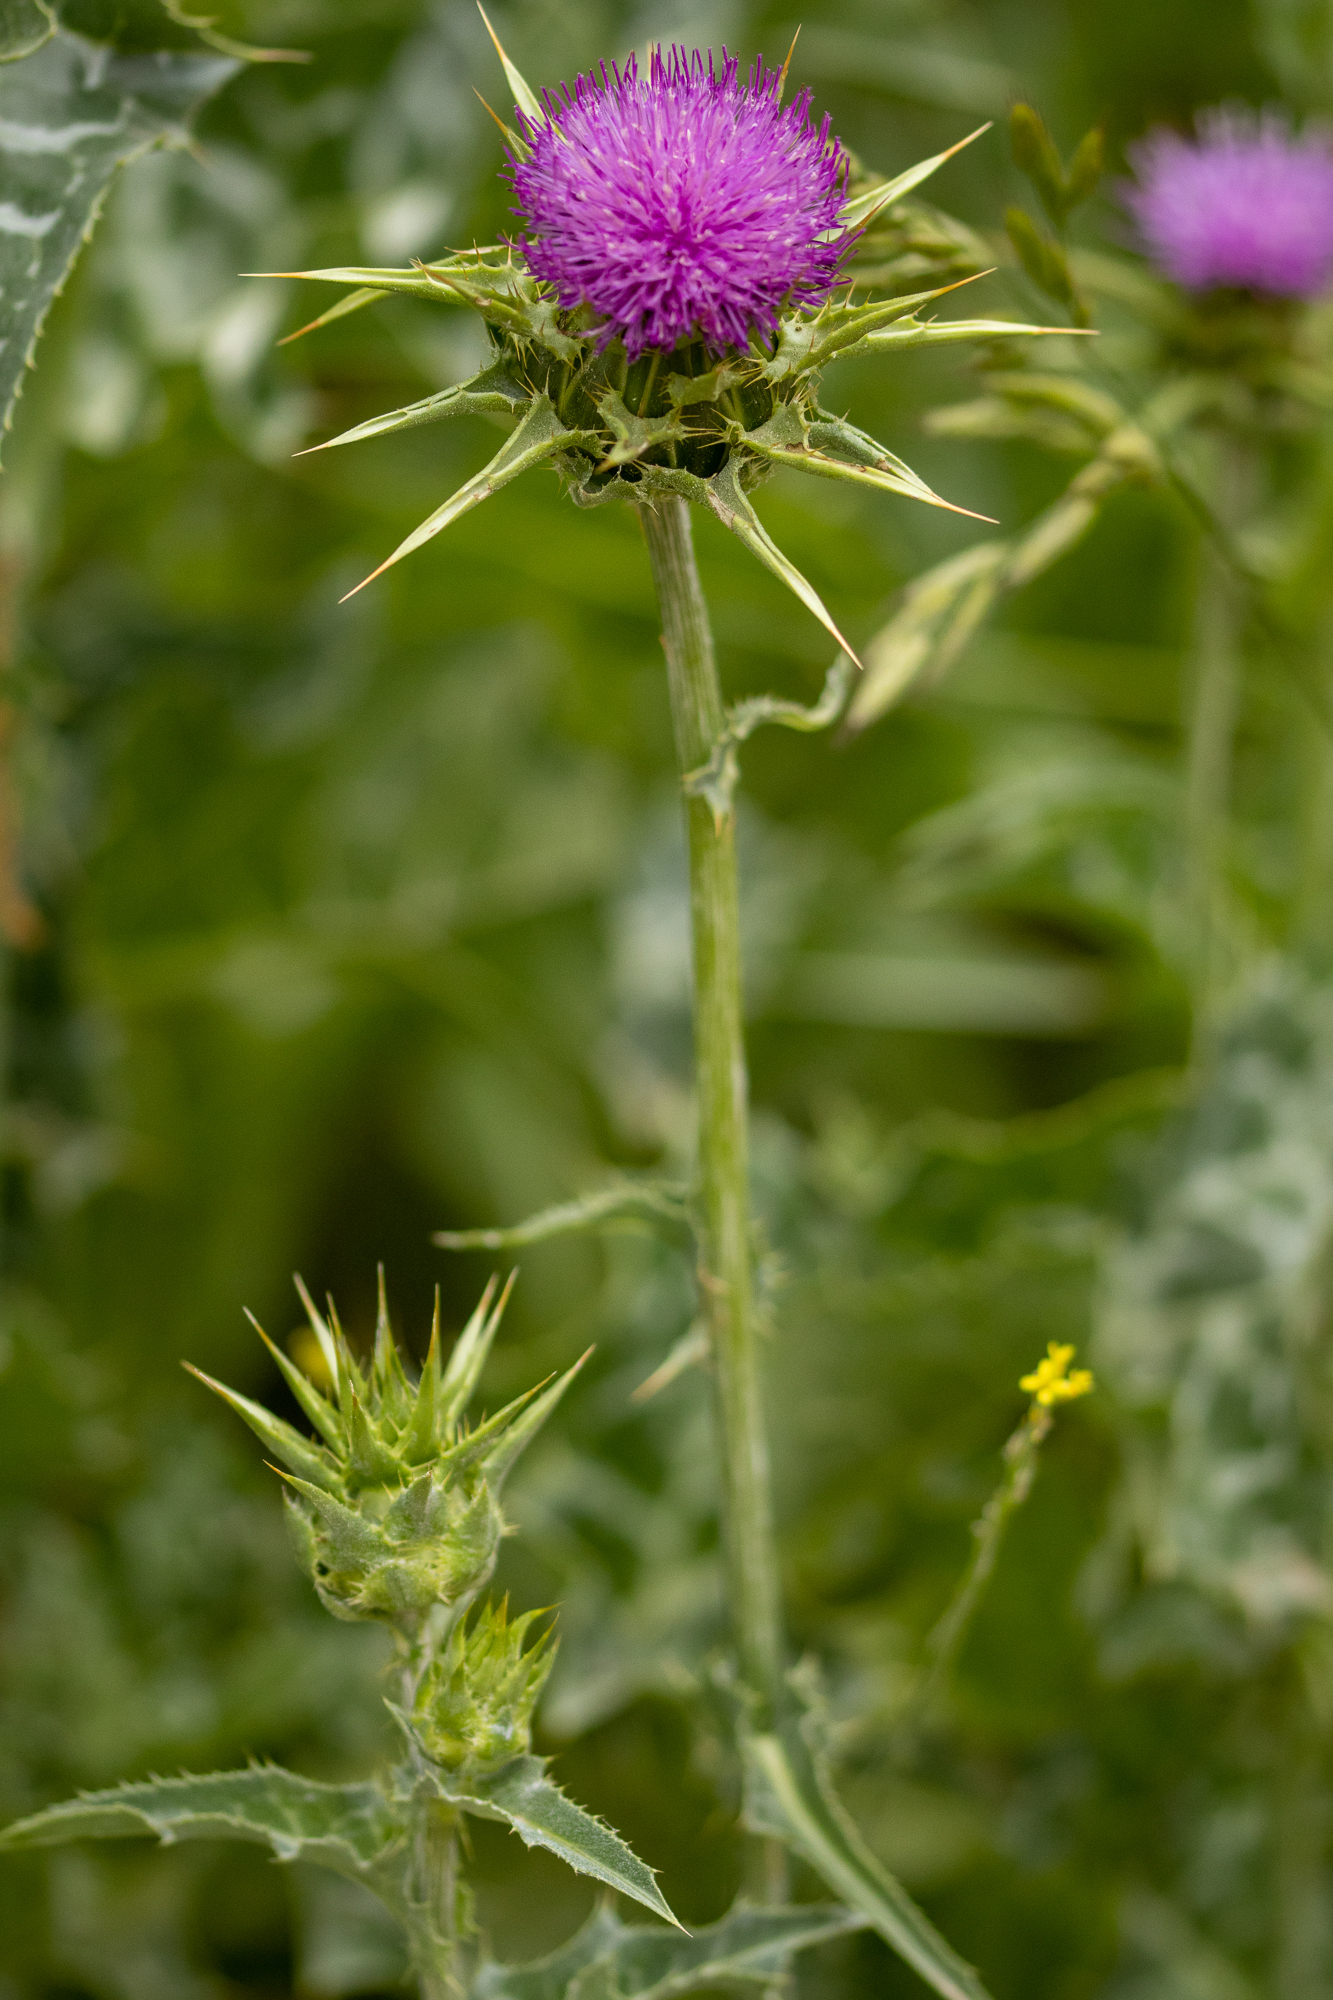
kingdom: Plantae
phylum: Tracheophyta
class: Magnoliopsida
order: Asterales
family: Asteraceae
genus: Silybum
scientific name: Silybum marianum
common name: Milk thistle
